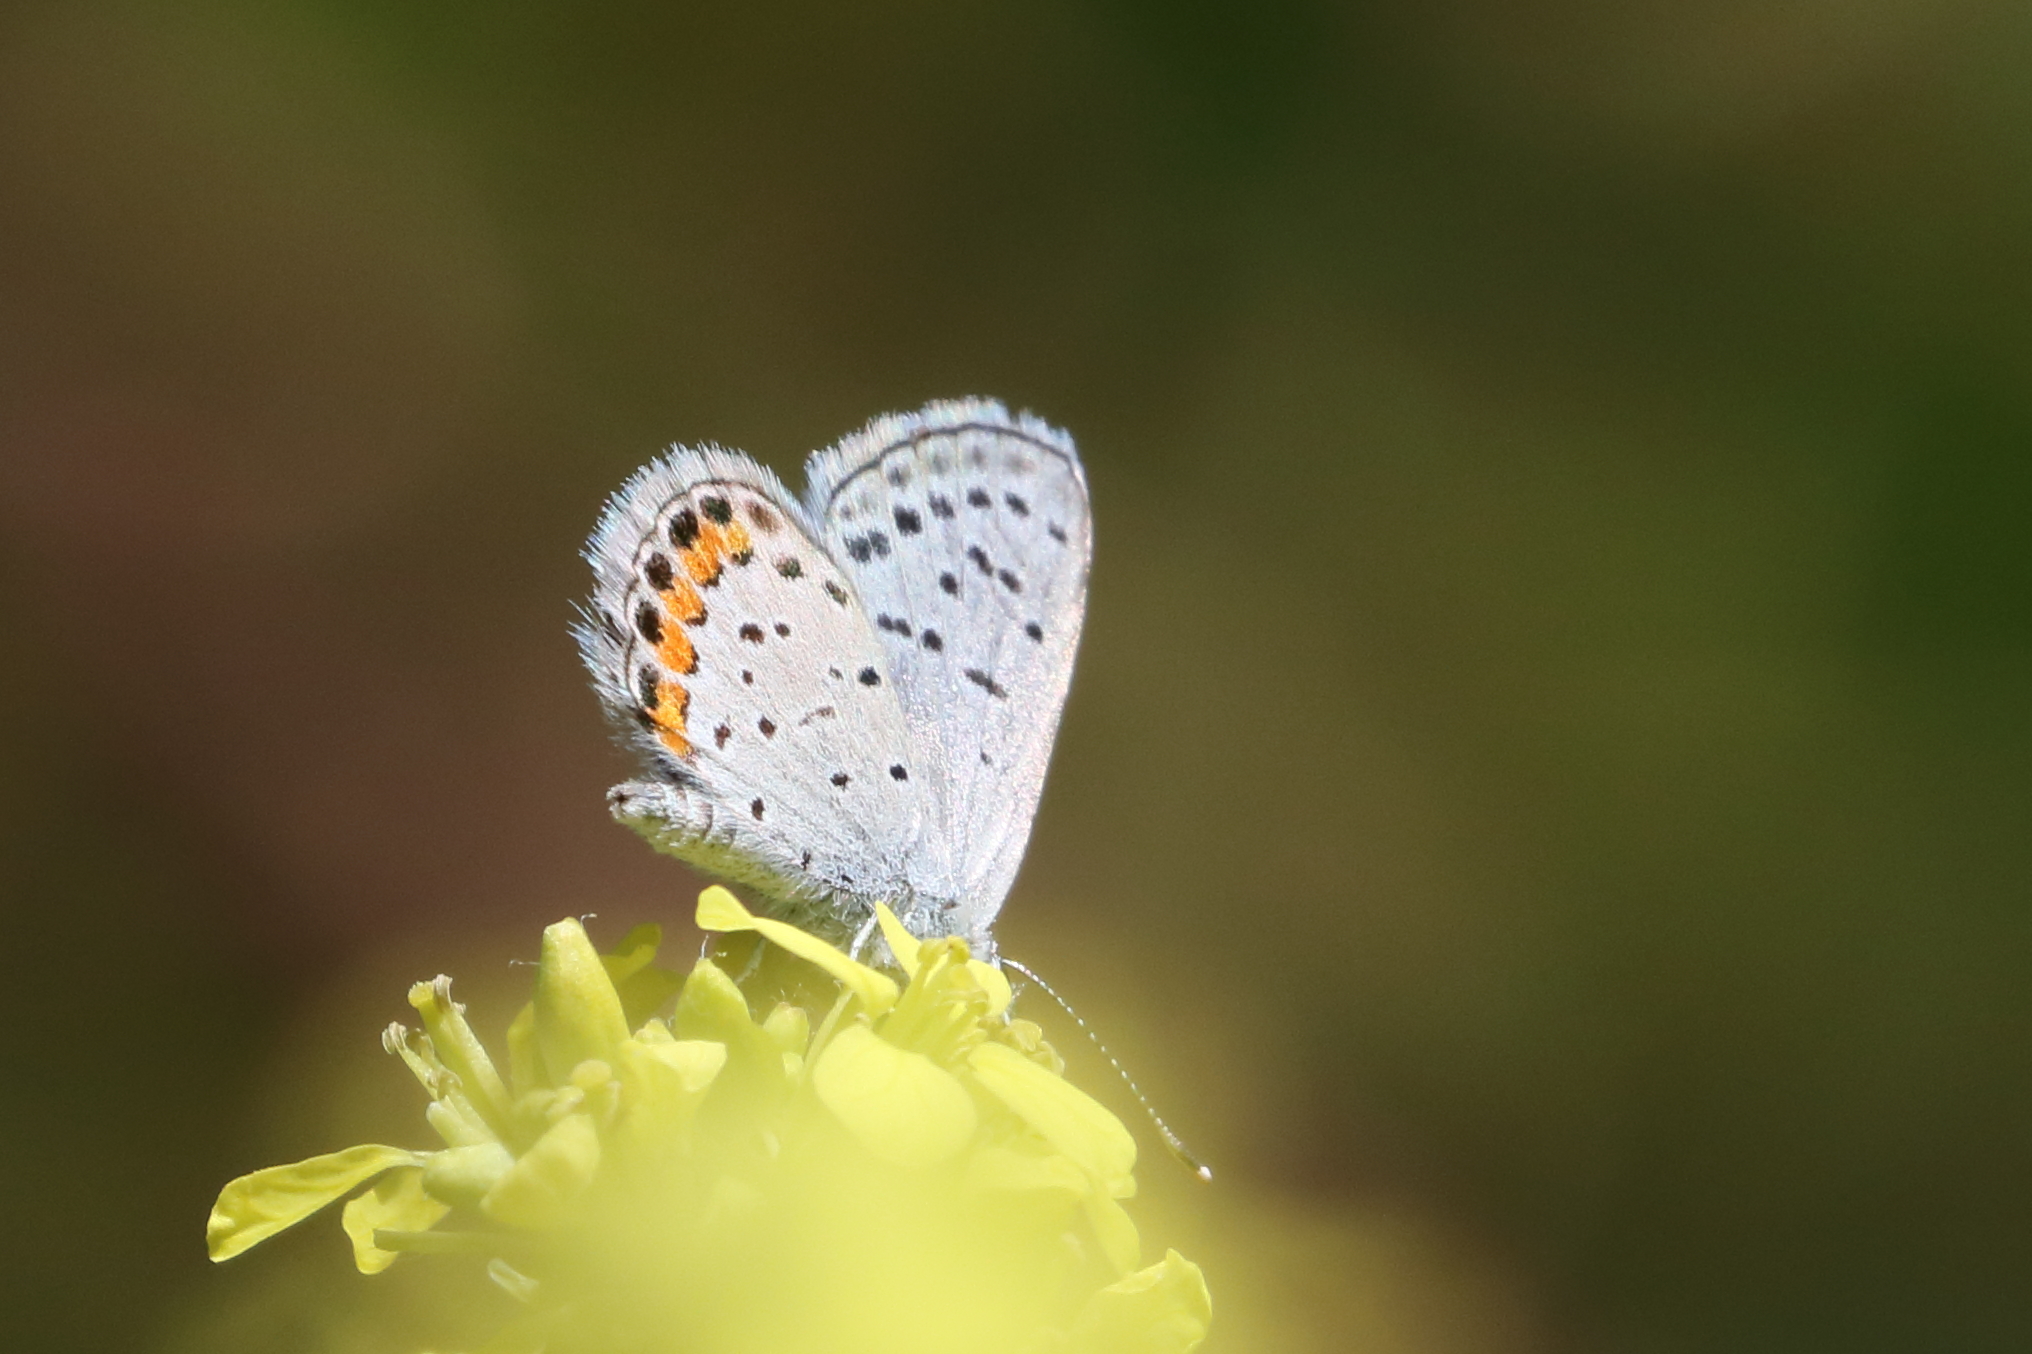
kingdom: Animalia
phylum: Arthropoda
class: Insecta
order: Lepidoptera
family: Lycaenidae
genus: Icaricia
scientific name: Icaricia acmon
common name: Acmon blue
